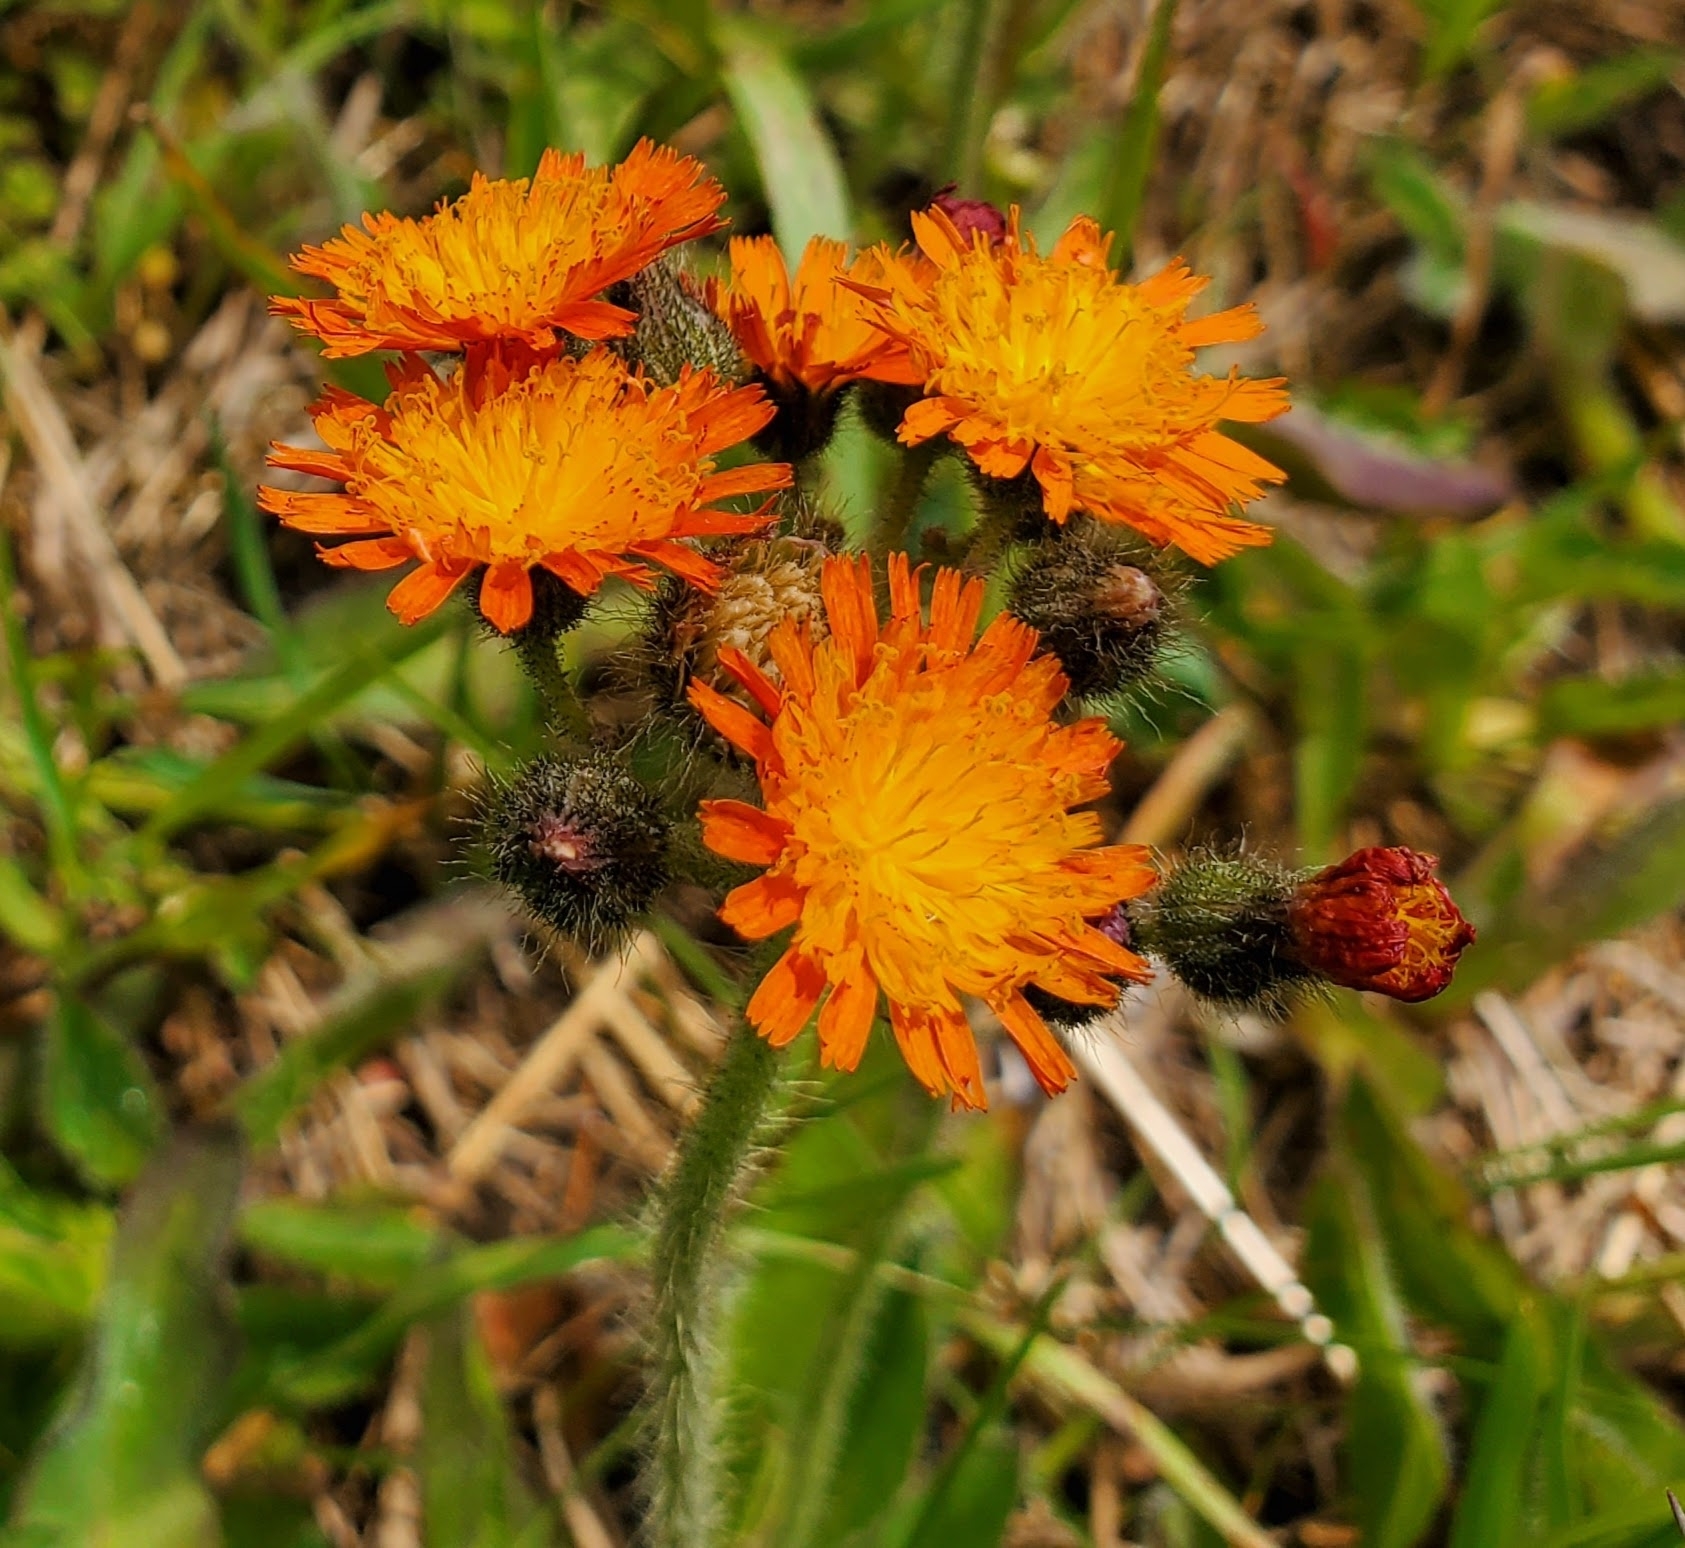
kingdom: Plantae
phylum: Tracheophyta
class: Magnoliopsida
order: Asterales
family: Asteraceae
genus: Pilosella
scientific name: Pilosella aurantiaca
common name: Fox-and-cubs
